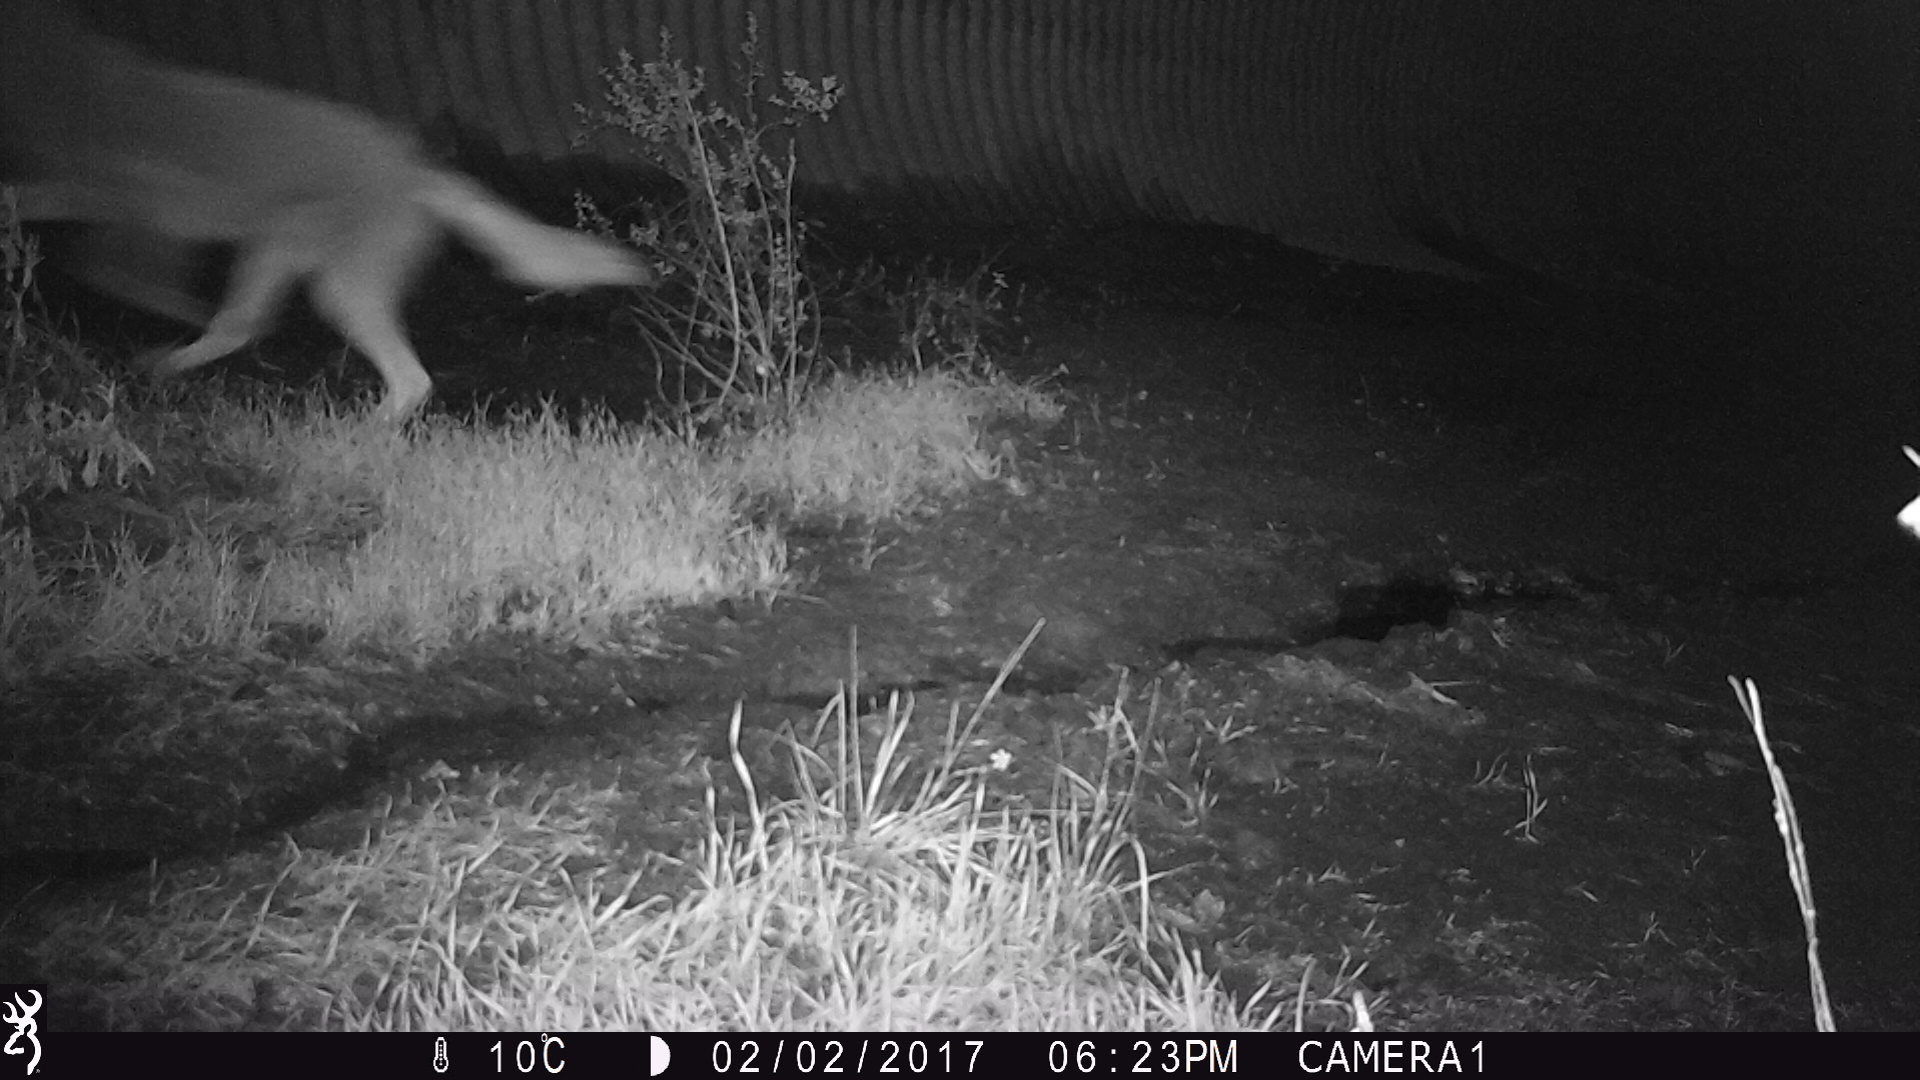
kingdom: Animalia
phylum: Chordata
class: Mammalia
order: Carnivora
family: Canidae
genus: Canis
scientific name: Canis latrans
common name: Coyote
